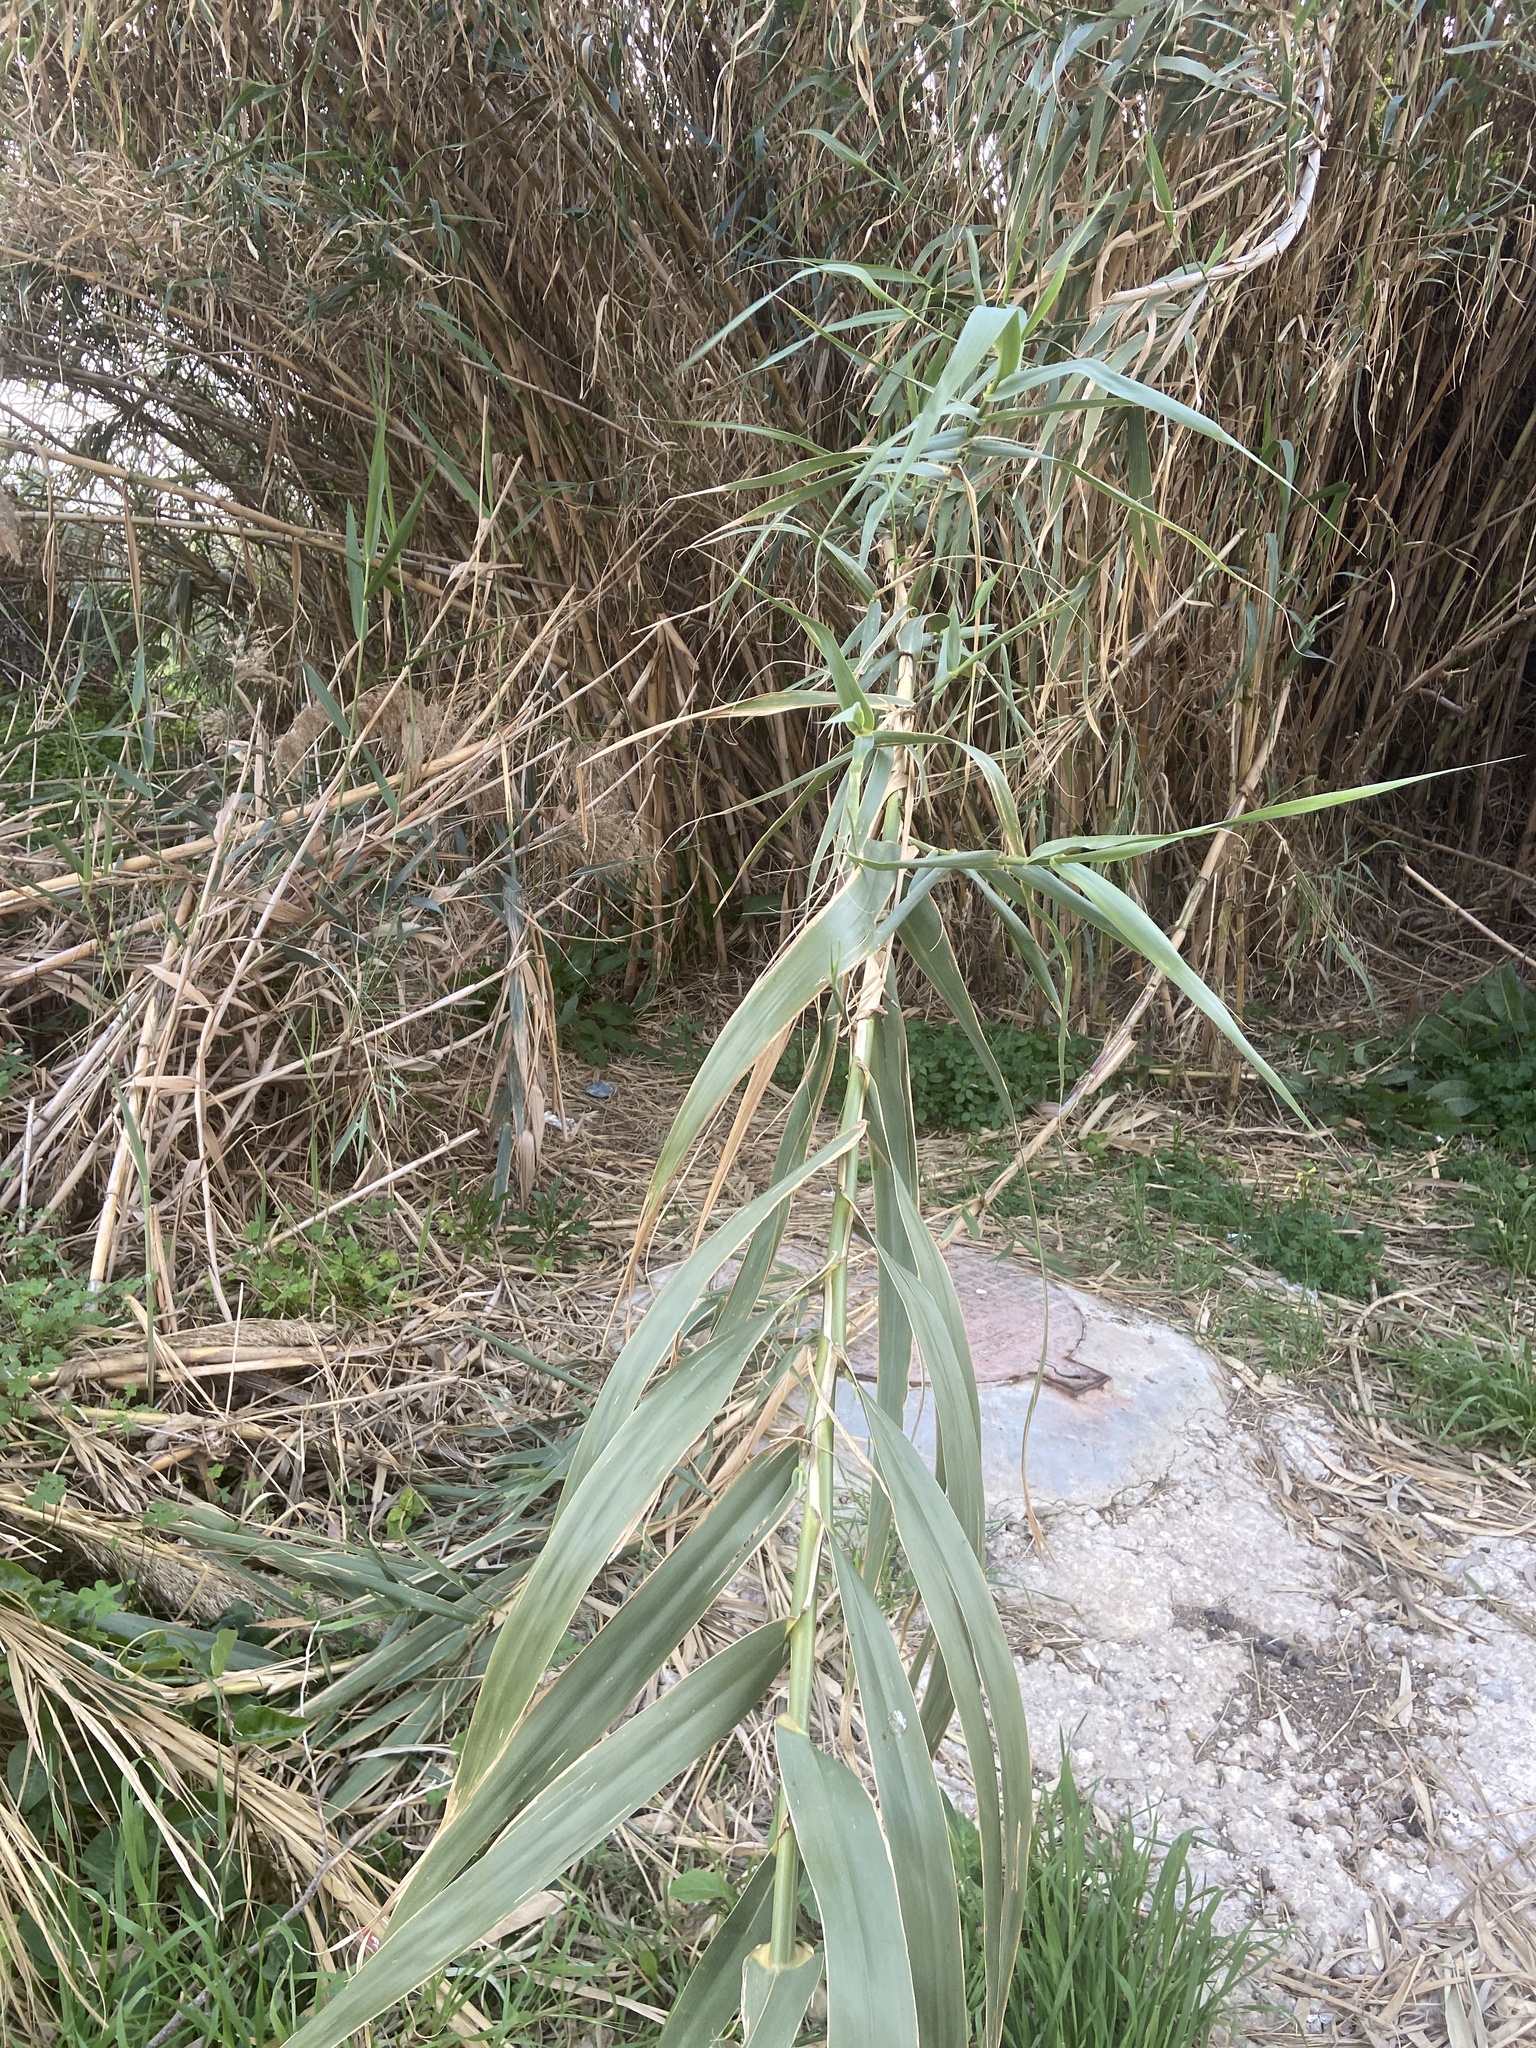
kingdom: Plantae
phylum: Tracheophyta
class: Liliopsida
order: Poales
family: Poaceae
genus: Arundo
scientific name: Arundo donax
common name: Giant reed
